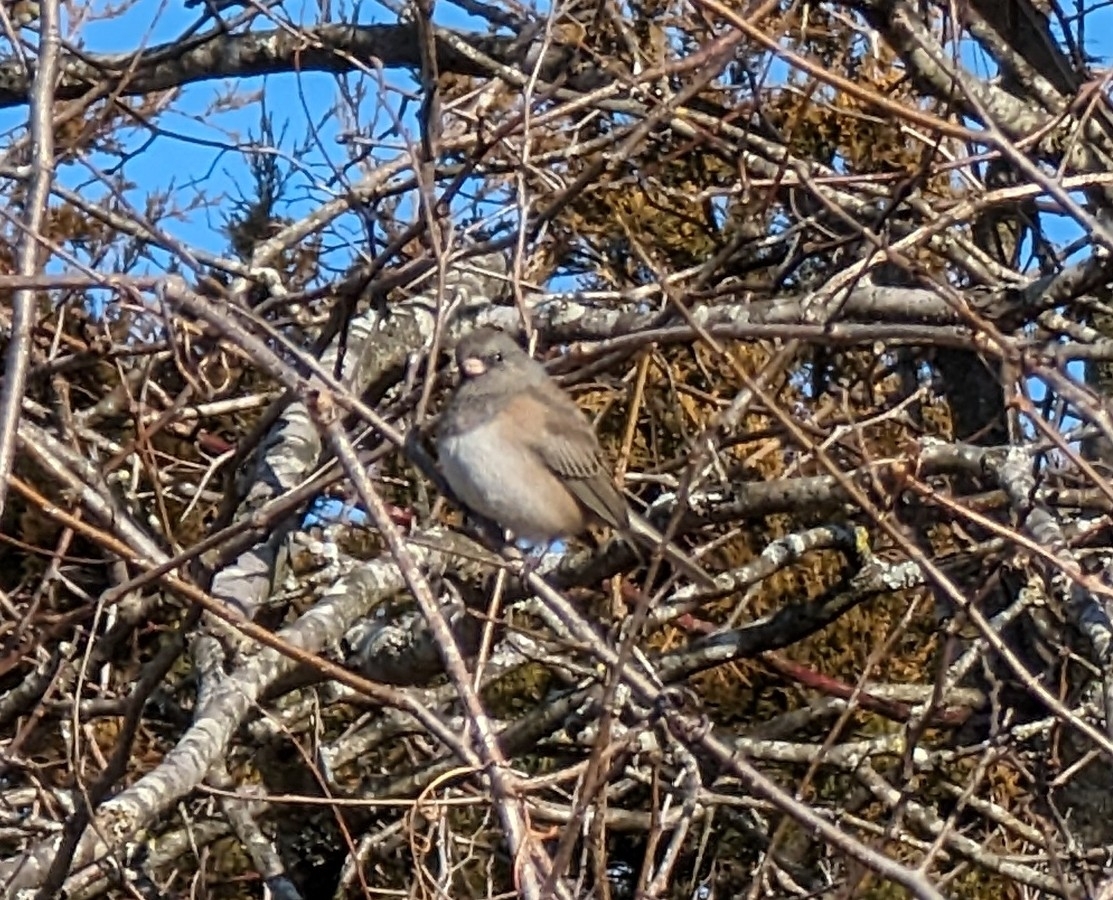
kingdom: Animalia
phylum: Chordata
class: Aves
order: Passeriformes
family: Passerellidae
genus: Junco
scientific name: Junco hyemalis
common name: Dark-eyed junco
